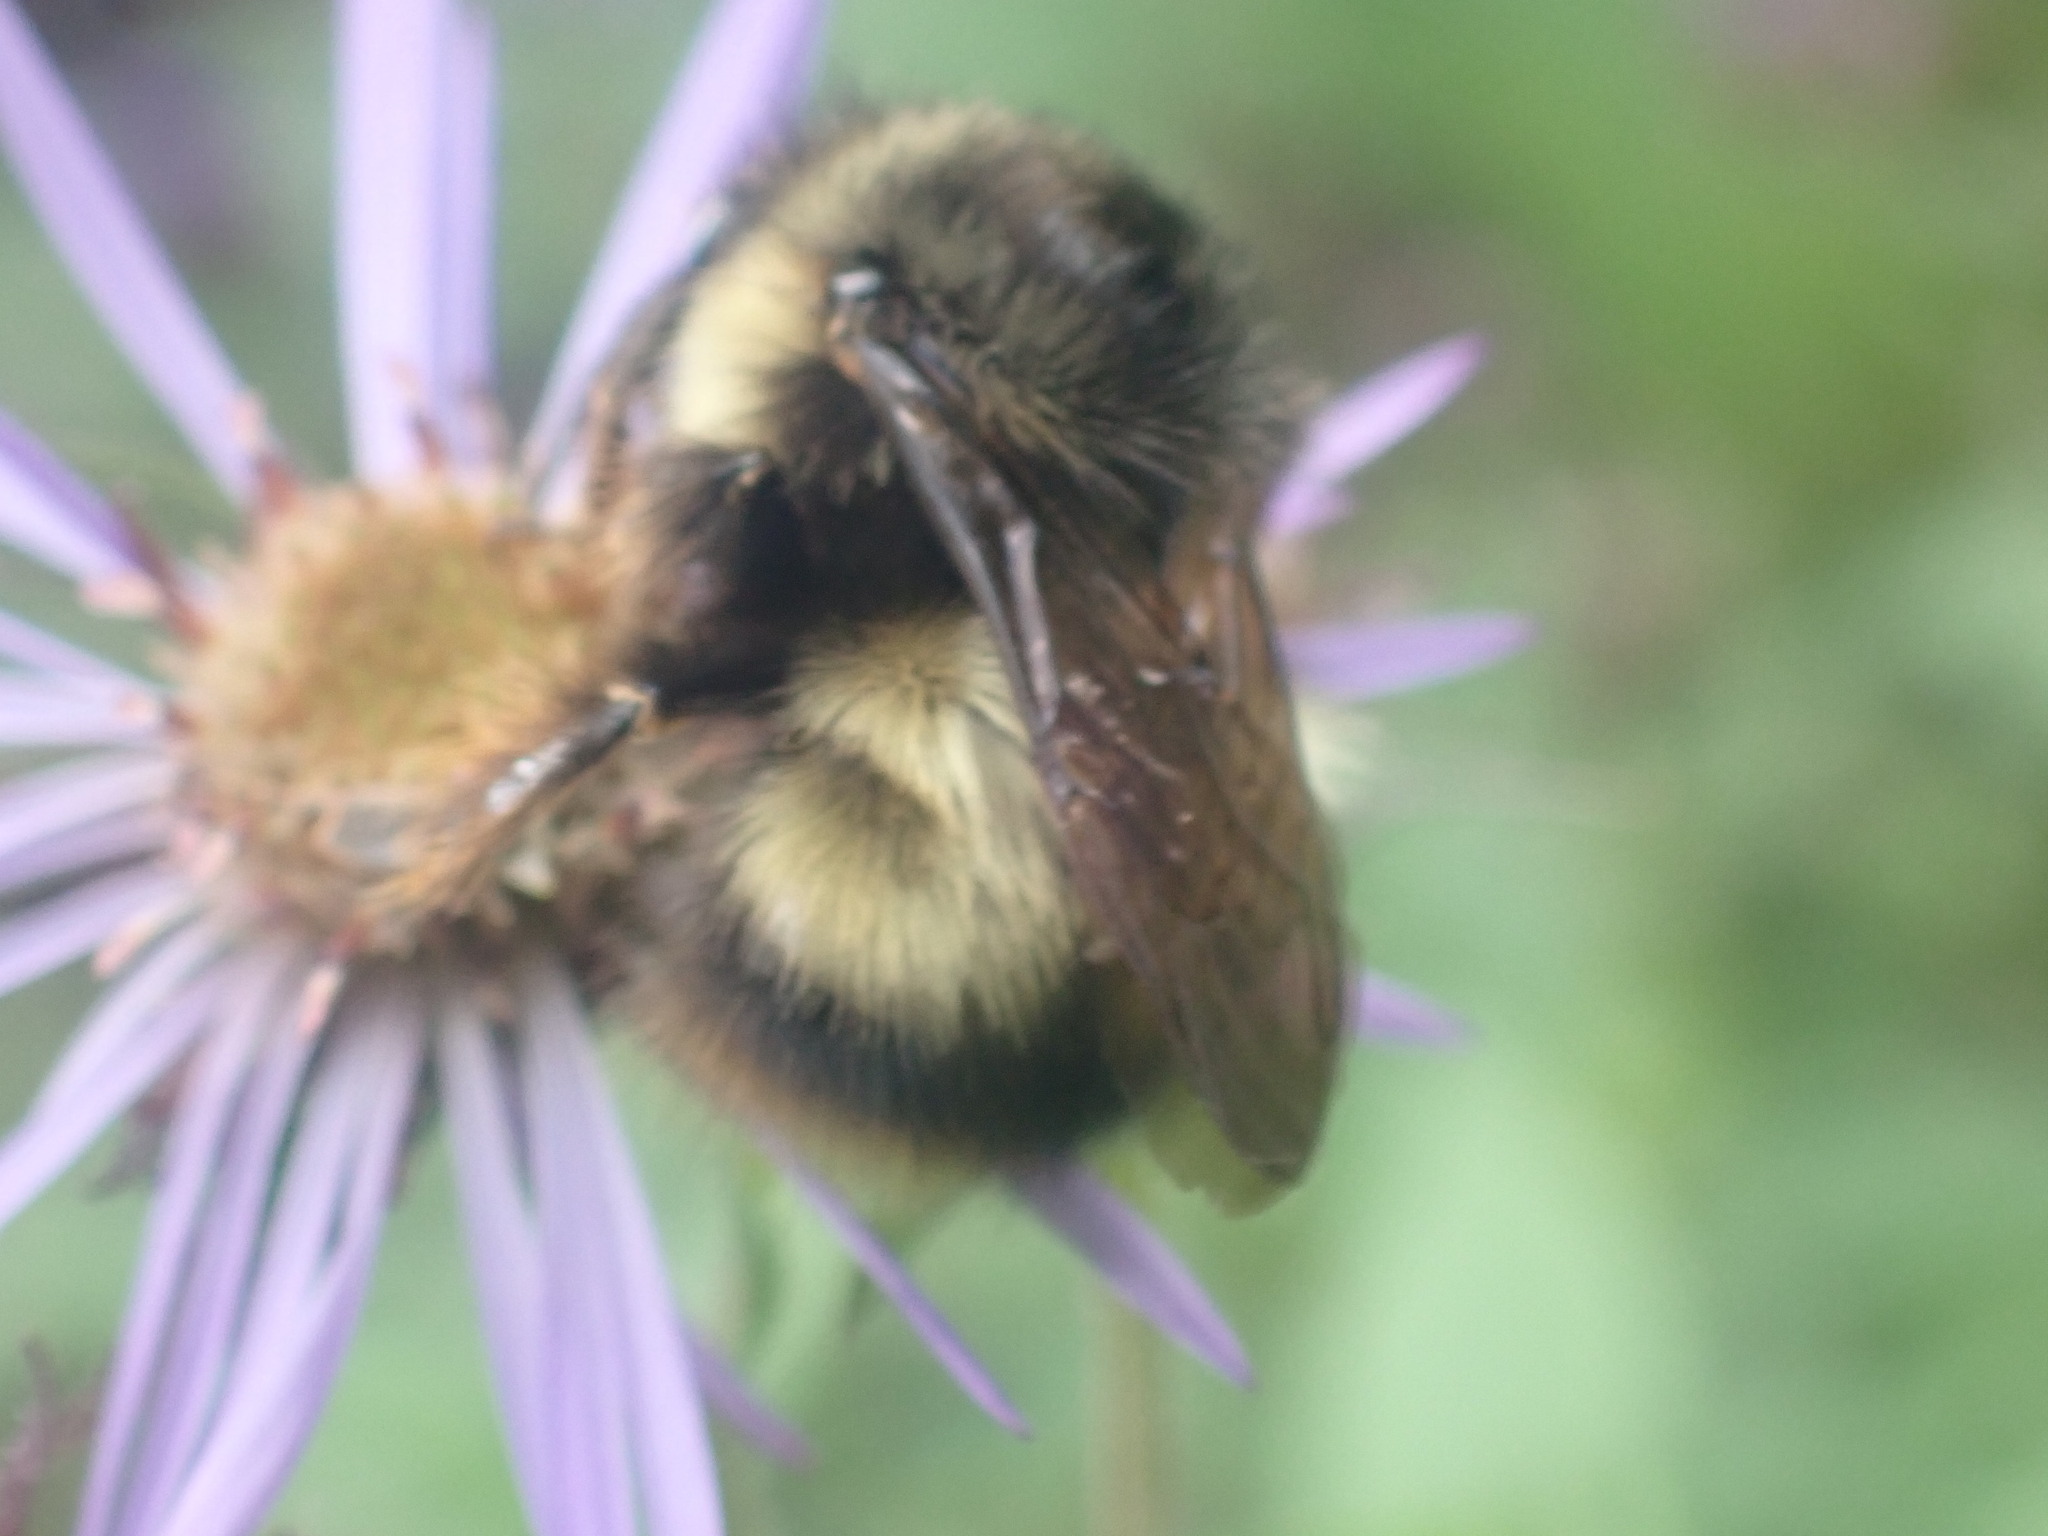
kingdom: Animalia
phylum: Arthropoda
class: Insecta
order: Hymenoptera
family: Apidae
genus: Bombus
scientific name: Bombus sitkensis
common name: Sitka bumble bee
